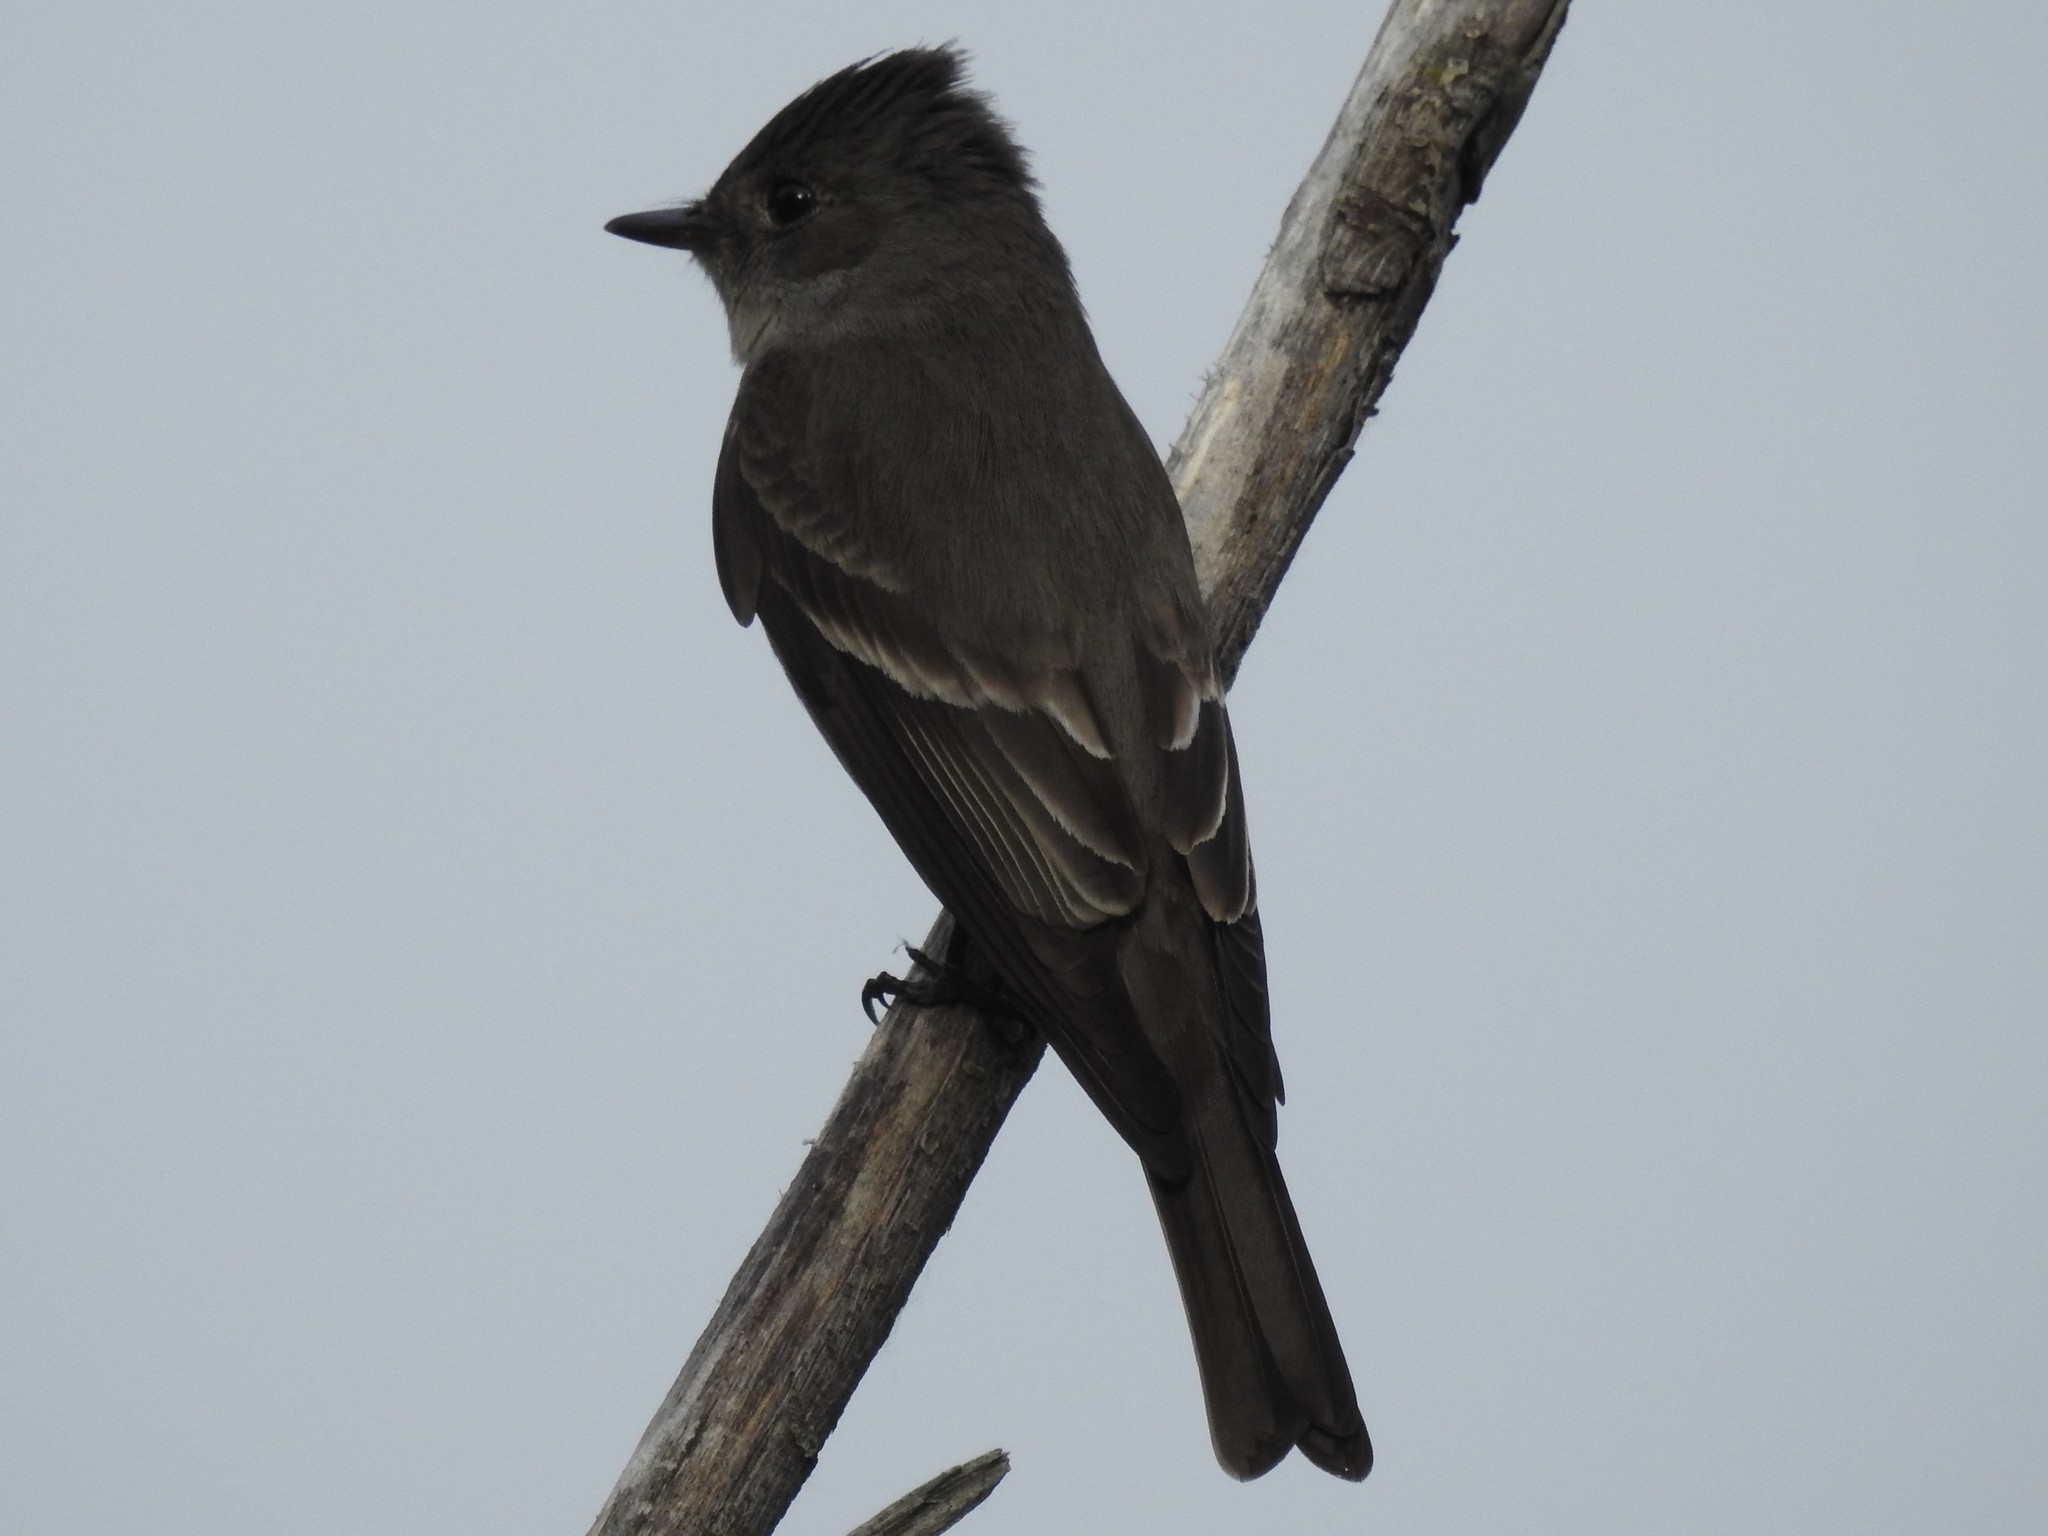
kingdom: Animalia
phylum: Chordata
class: Aves
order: Passeriformes
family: Tyrannidae
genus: Contopus
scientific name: Contopus sordidulus
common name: Western wood-pewee
